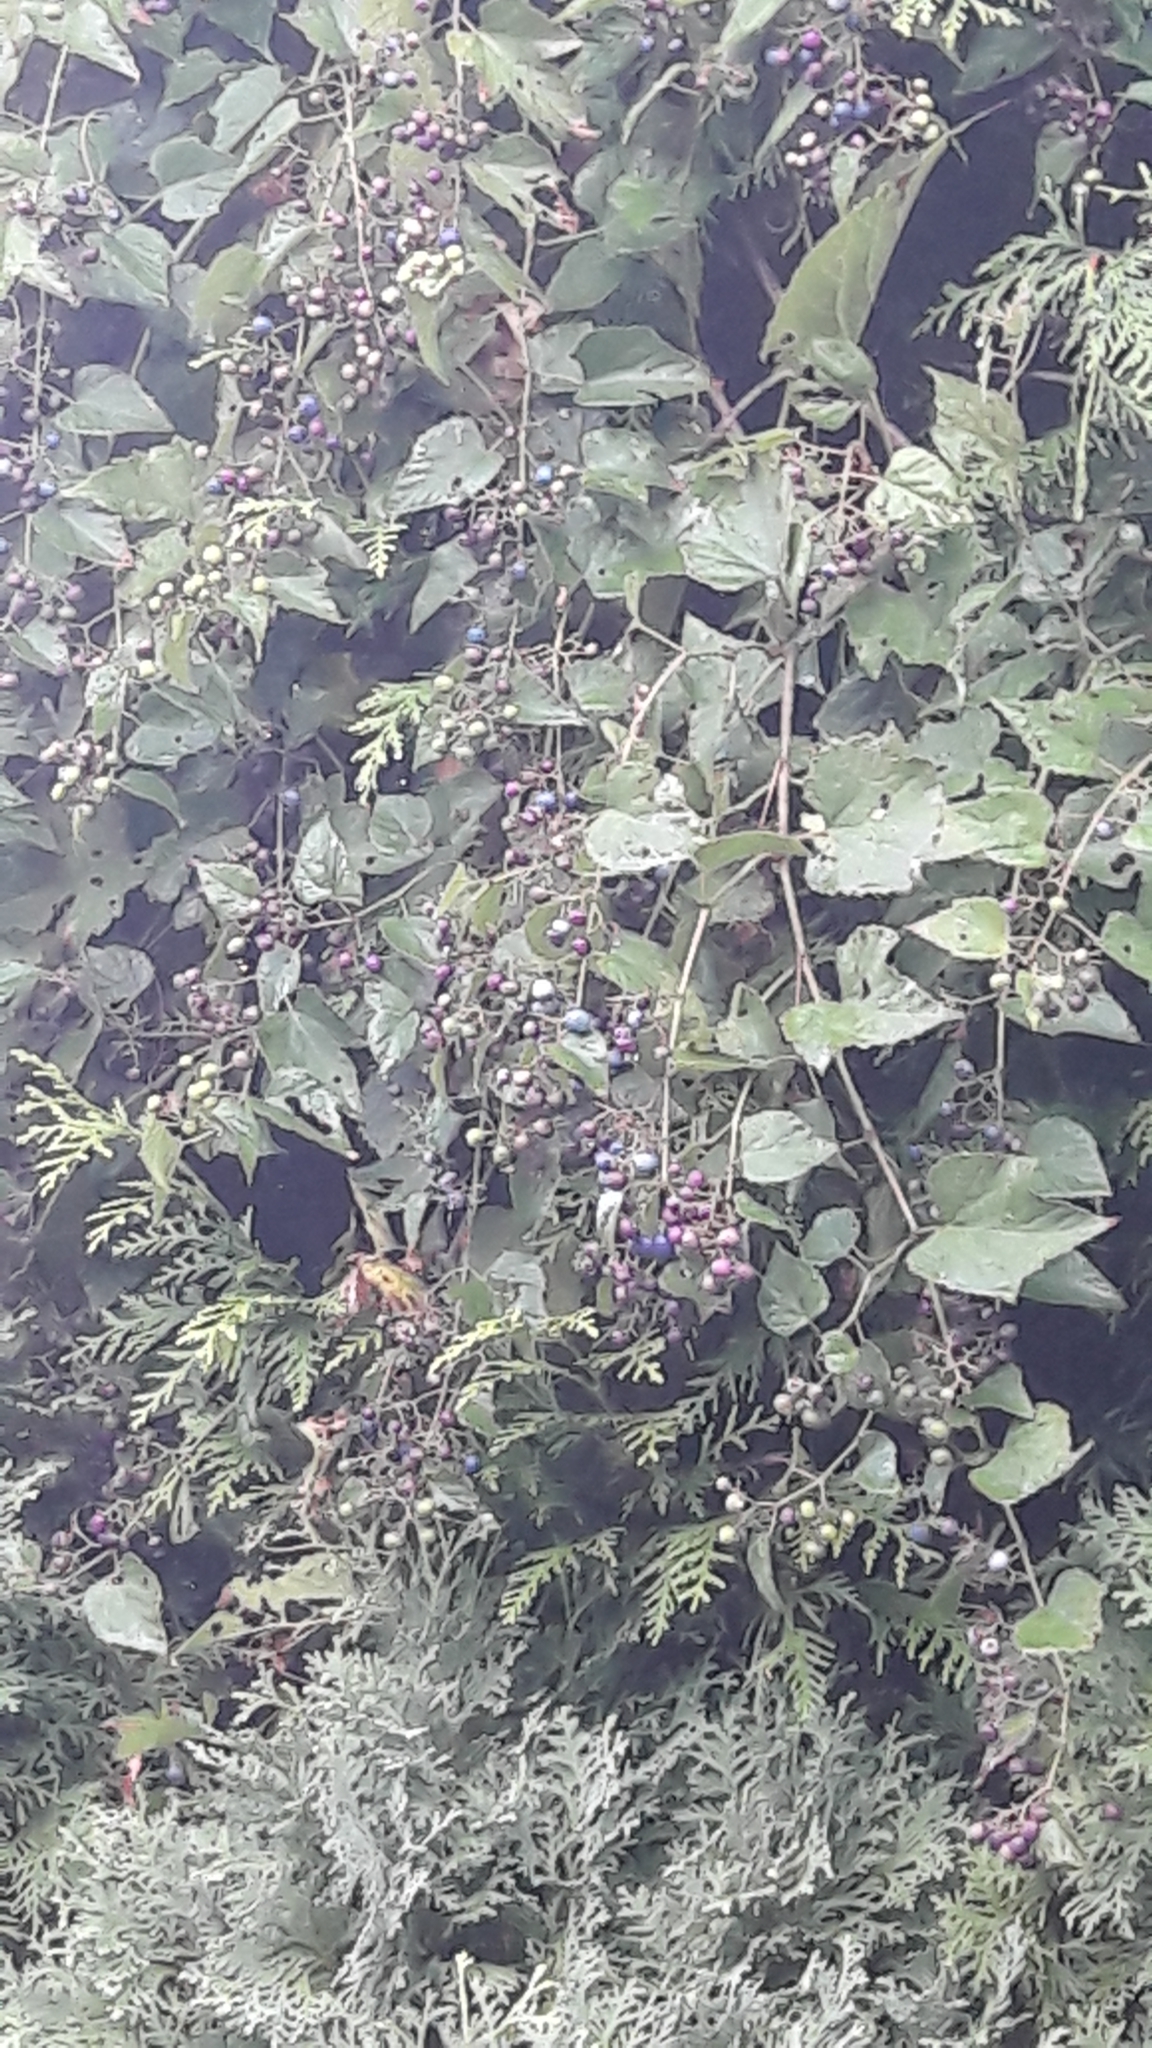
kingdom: Plantae
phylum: Tracheophyta
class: Magnoliopsida
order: Vitales
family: Vitaceae
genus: Ampelopsis
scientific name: Ampelopsis glandulosa
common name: Amur peppervine
